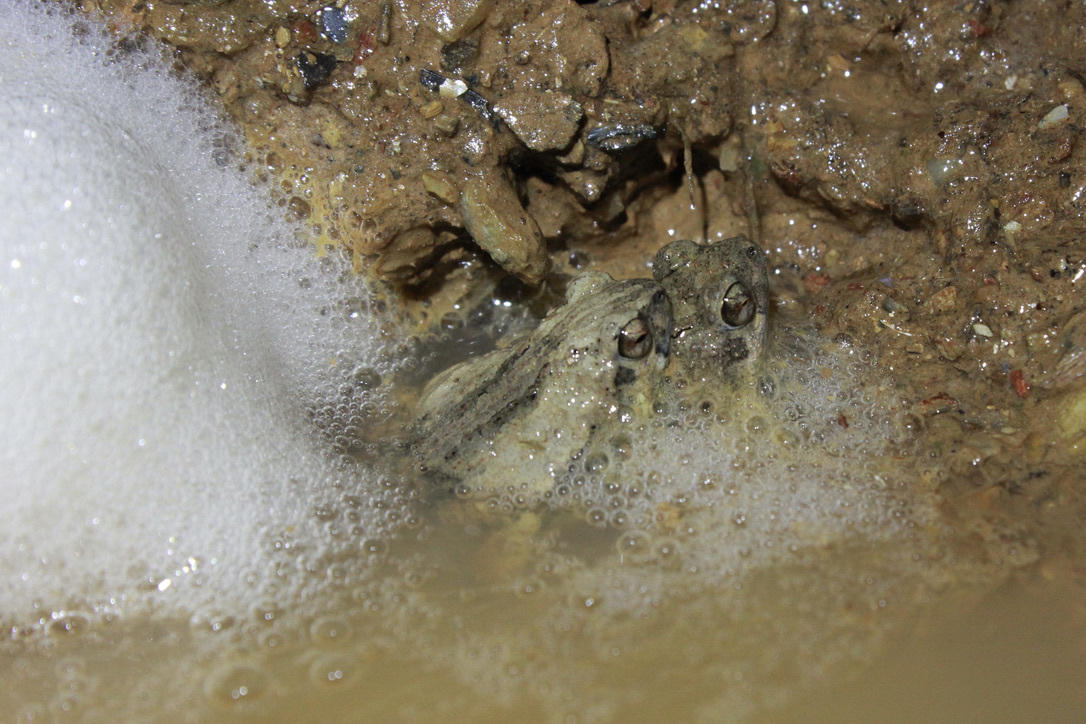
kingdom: Animalia
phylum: Chordata
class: Amphibia
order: Anura
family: Leptodactylidae
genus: Engystomops
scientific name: Engystomops pustulosus
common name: Tungara frog
